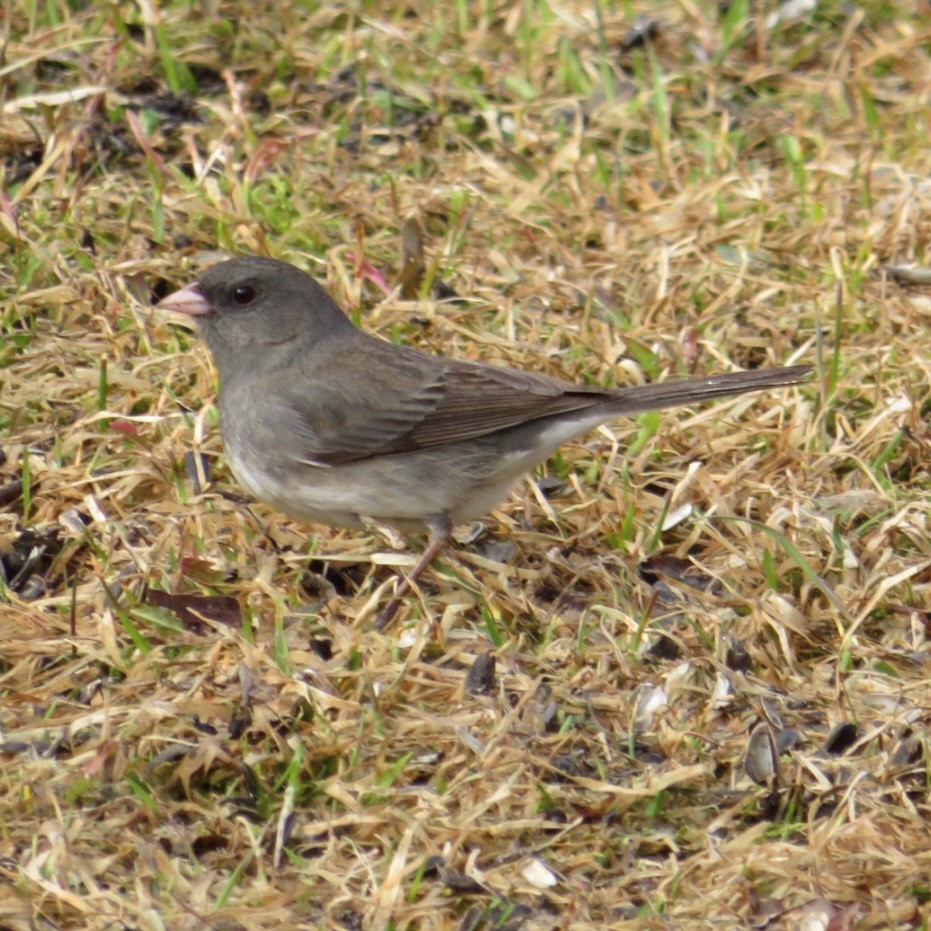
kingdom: Animalia
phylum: Chordata
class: Aves
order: Passeriformes
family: Passerellidae
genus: Junco
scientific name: Junco hyemalis
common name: Dark-eyed junco
